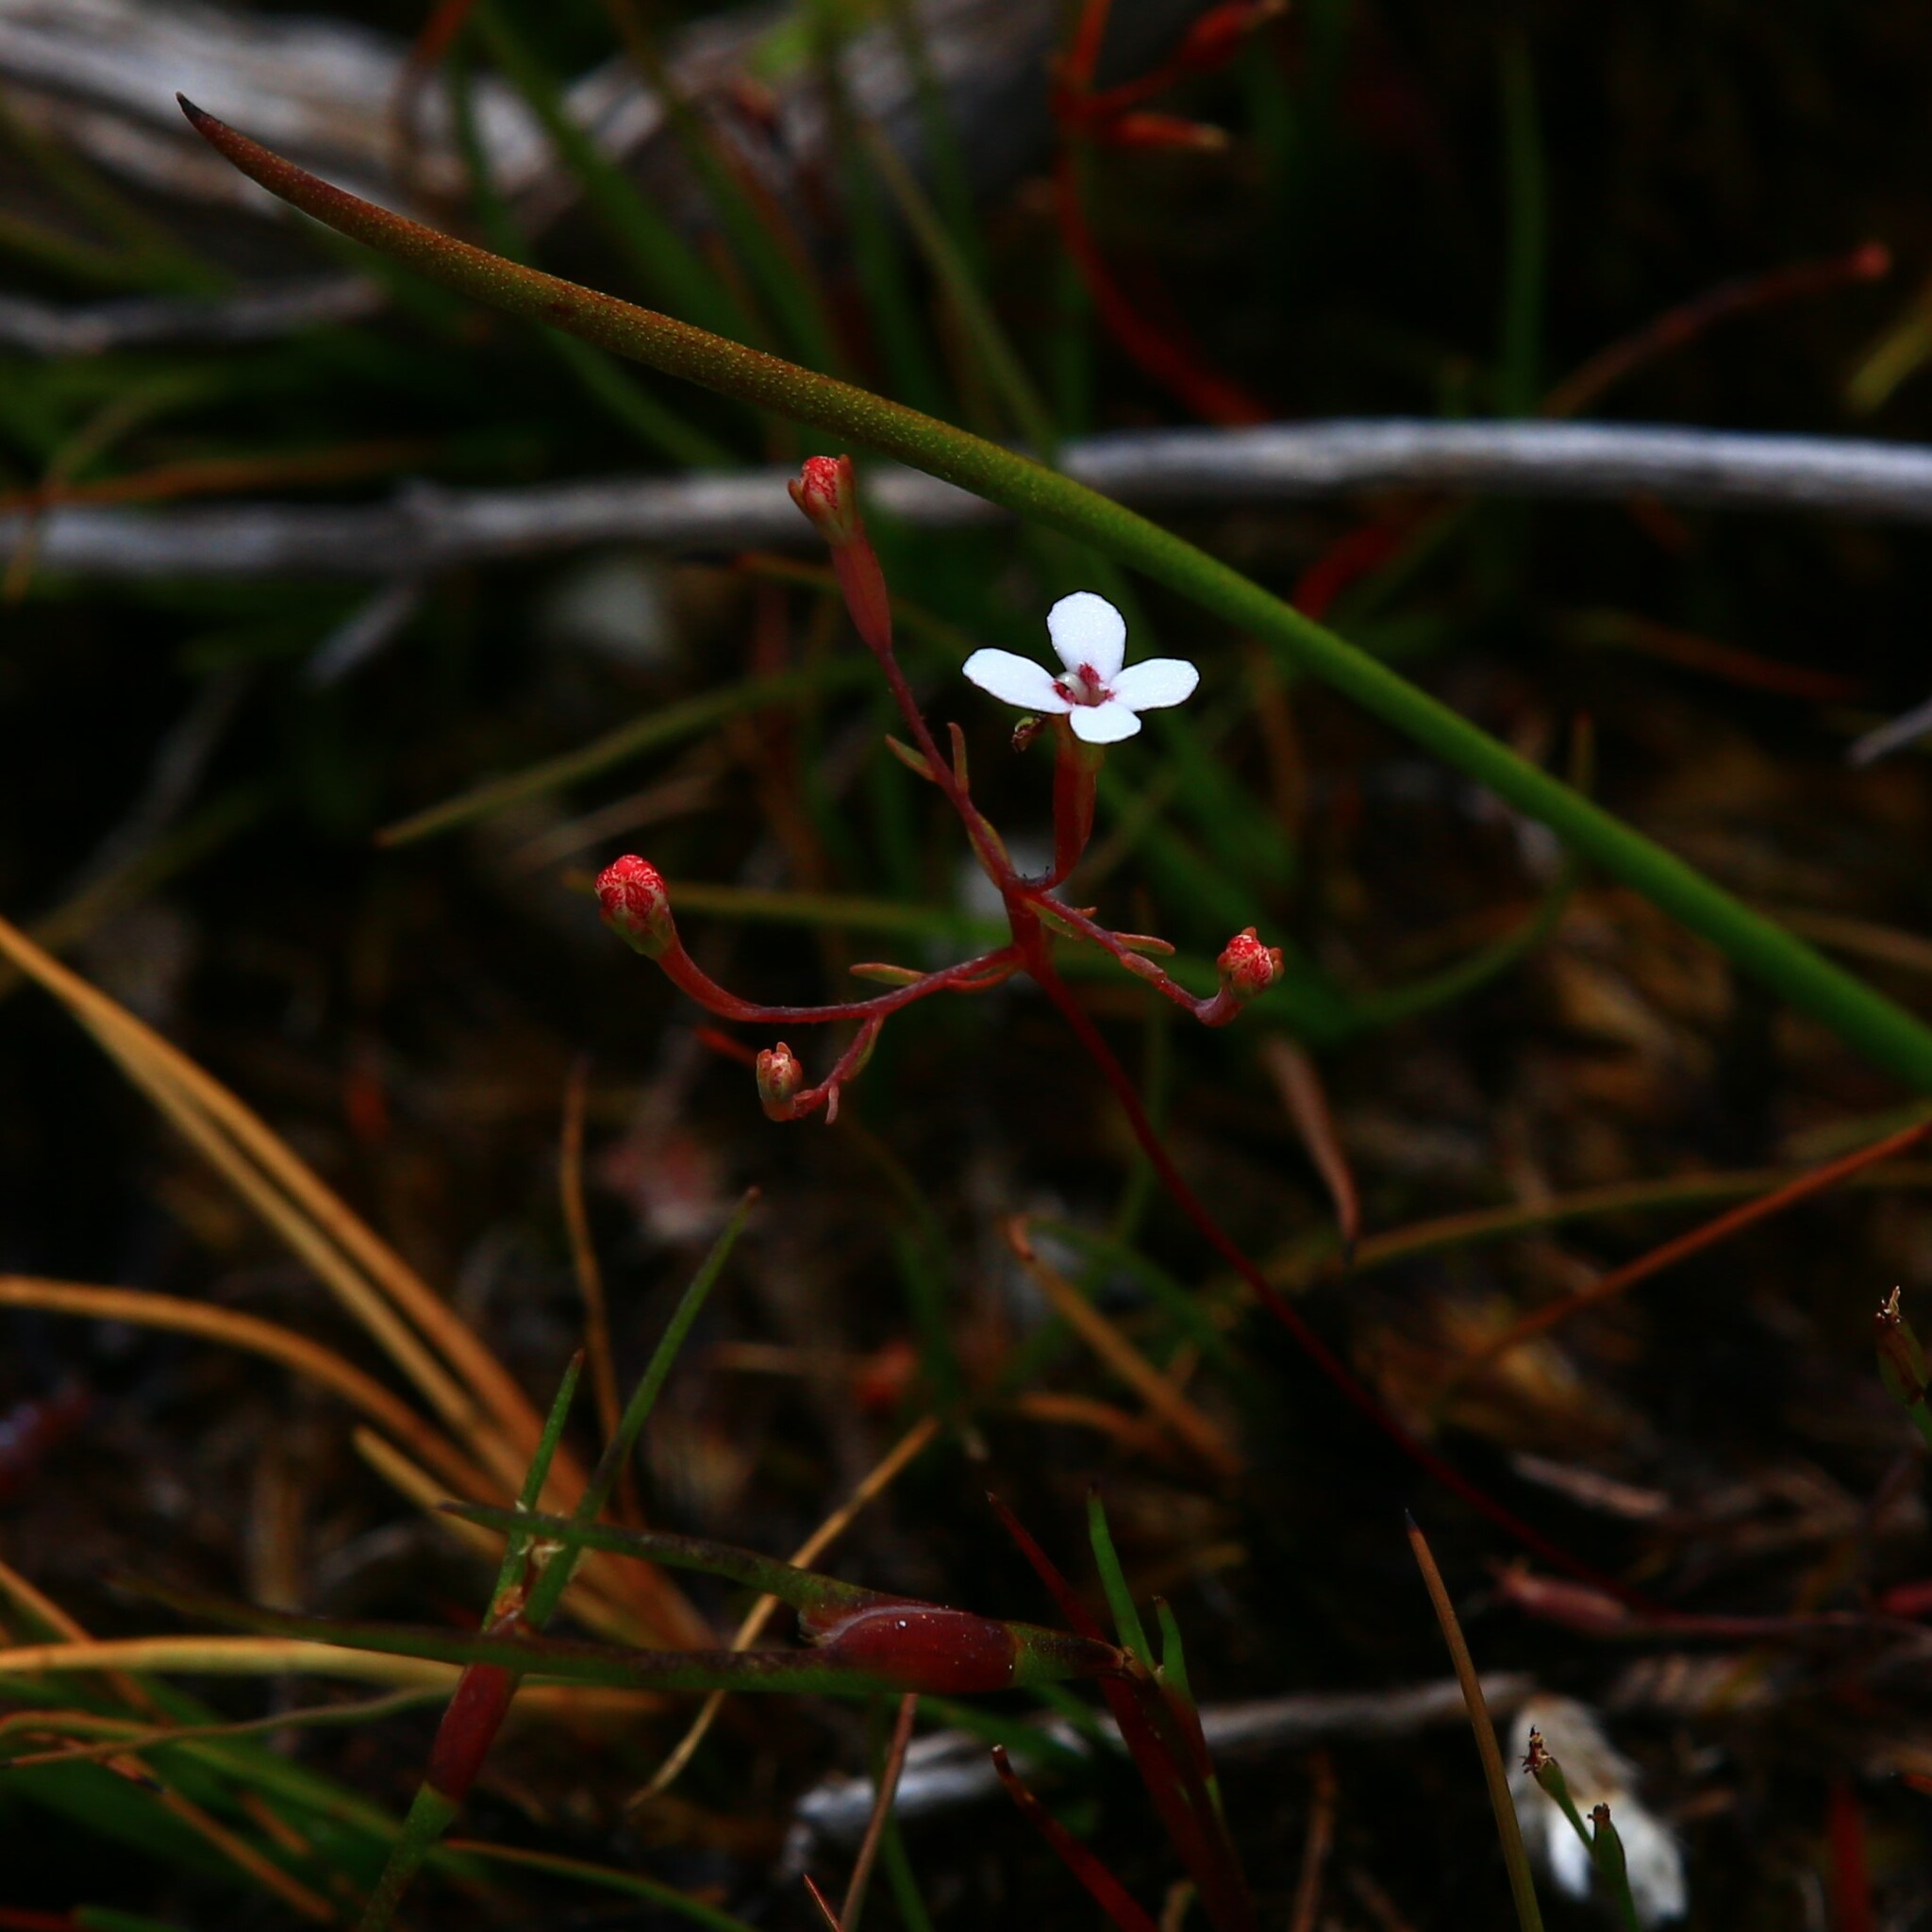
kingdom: Plantae
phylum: Tracheophyta
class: Magnoliopsida
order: Asterales
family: Stylidiaceae
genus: Stylidium
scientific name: Stylidium pulchellum
